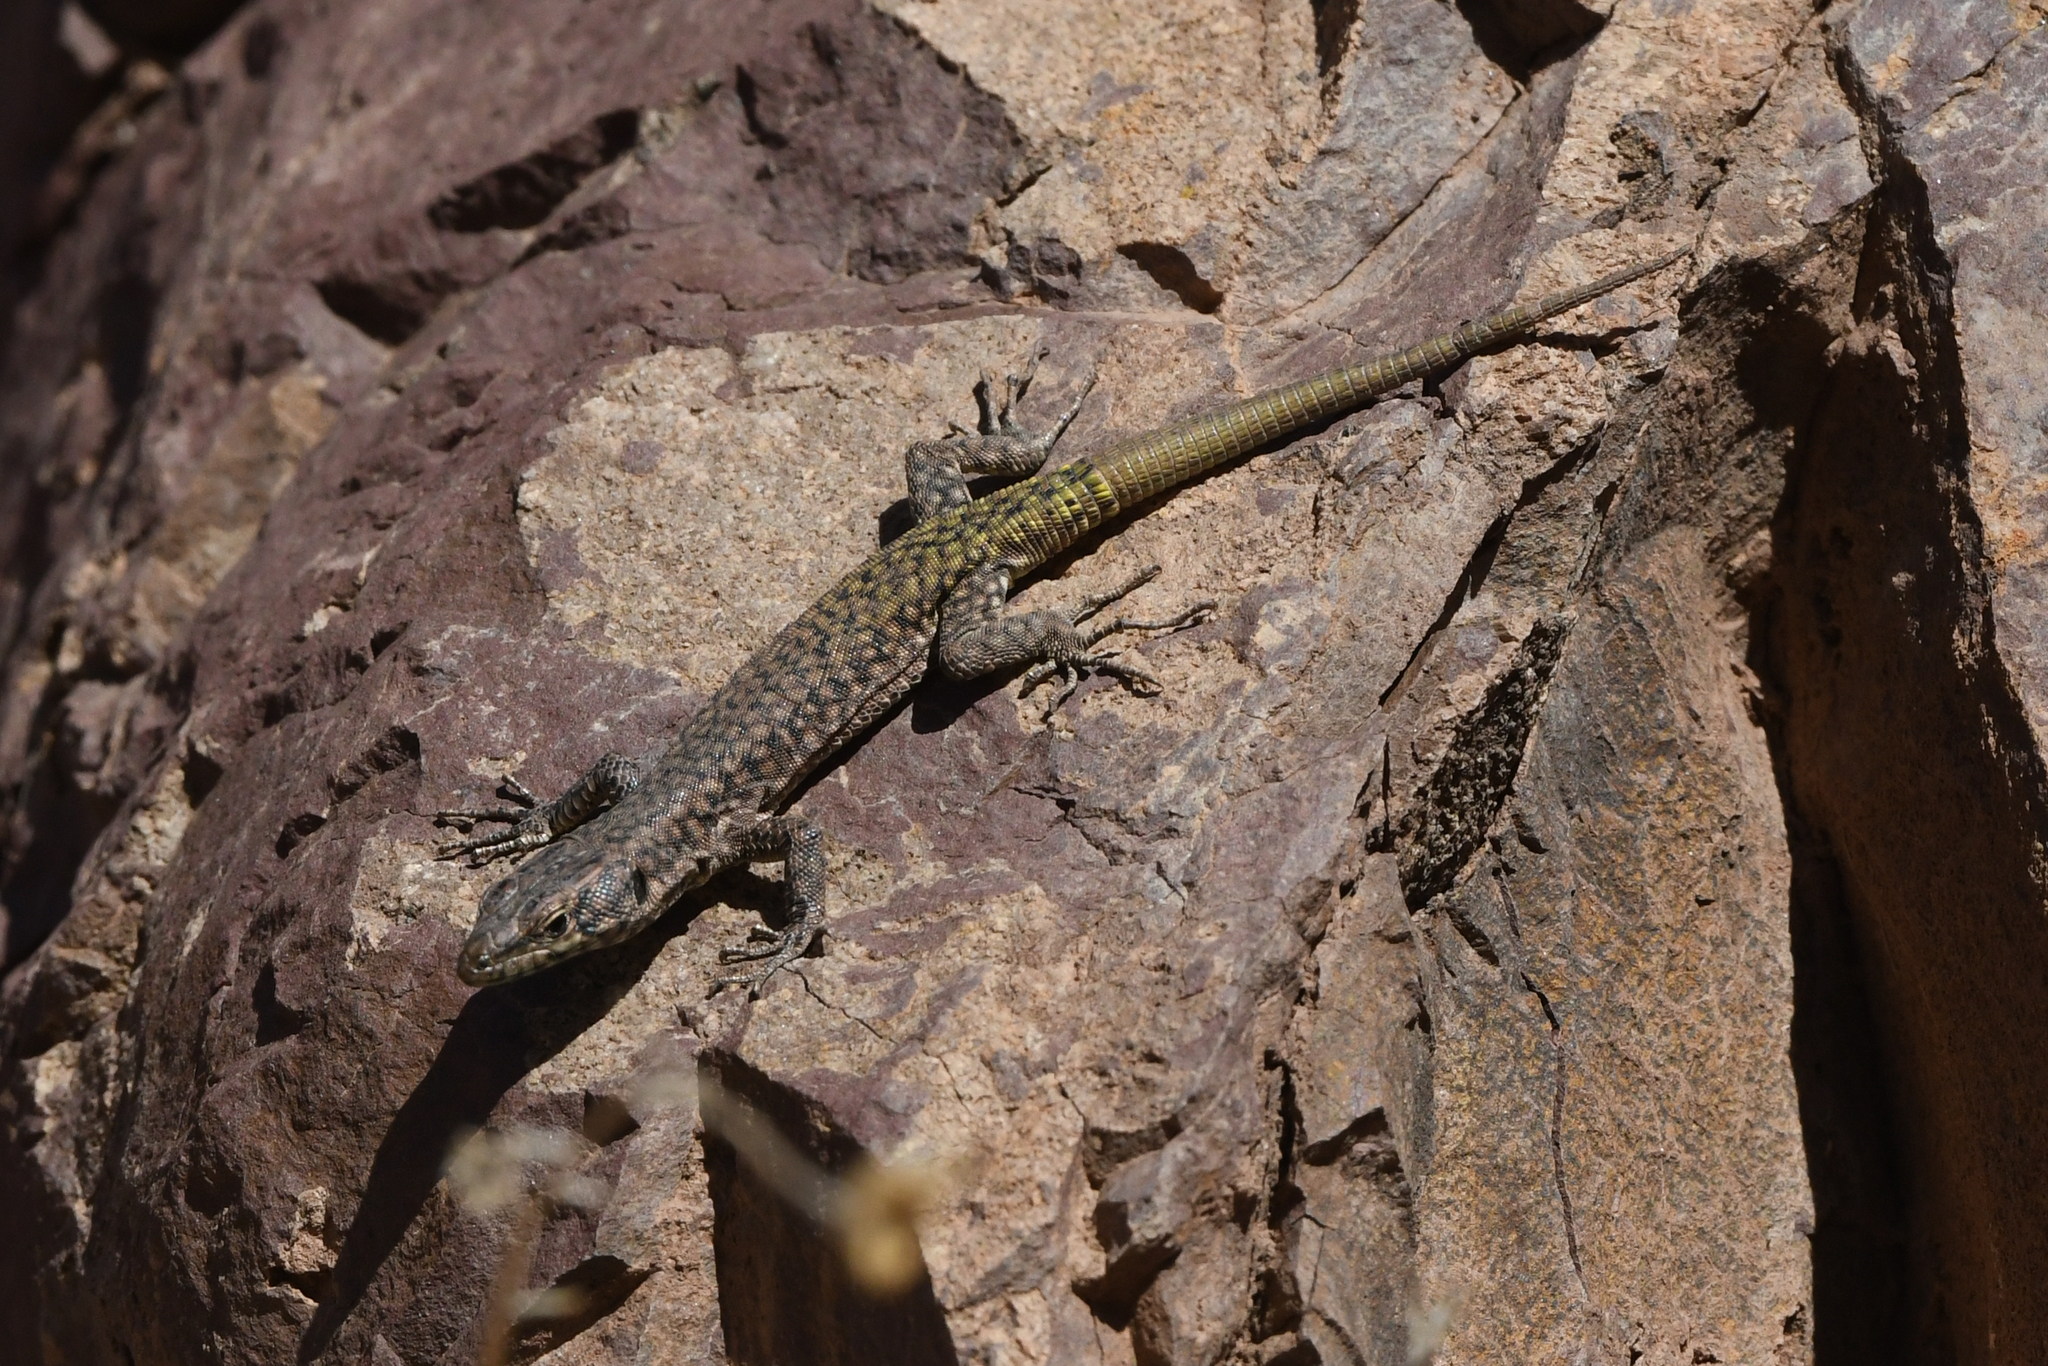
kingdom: Animalia
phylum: Chordata
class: Squamata
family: Lacertidae
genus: Scelarcis
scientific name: Scelarcis perspicillata
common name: Moroccan rock lizard
